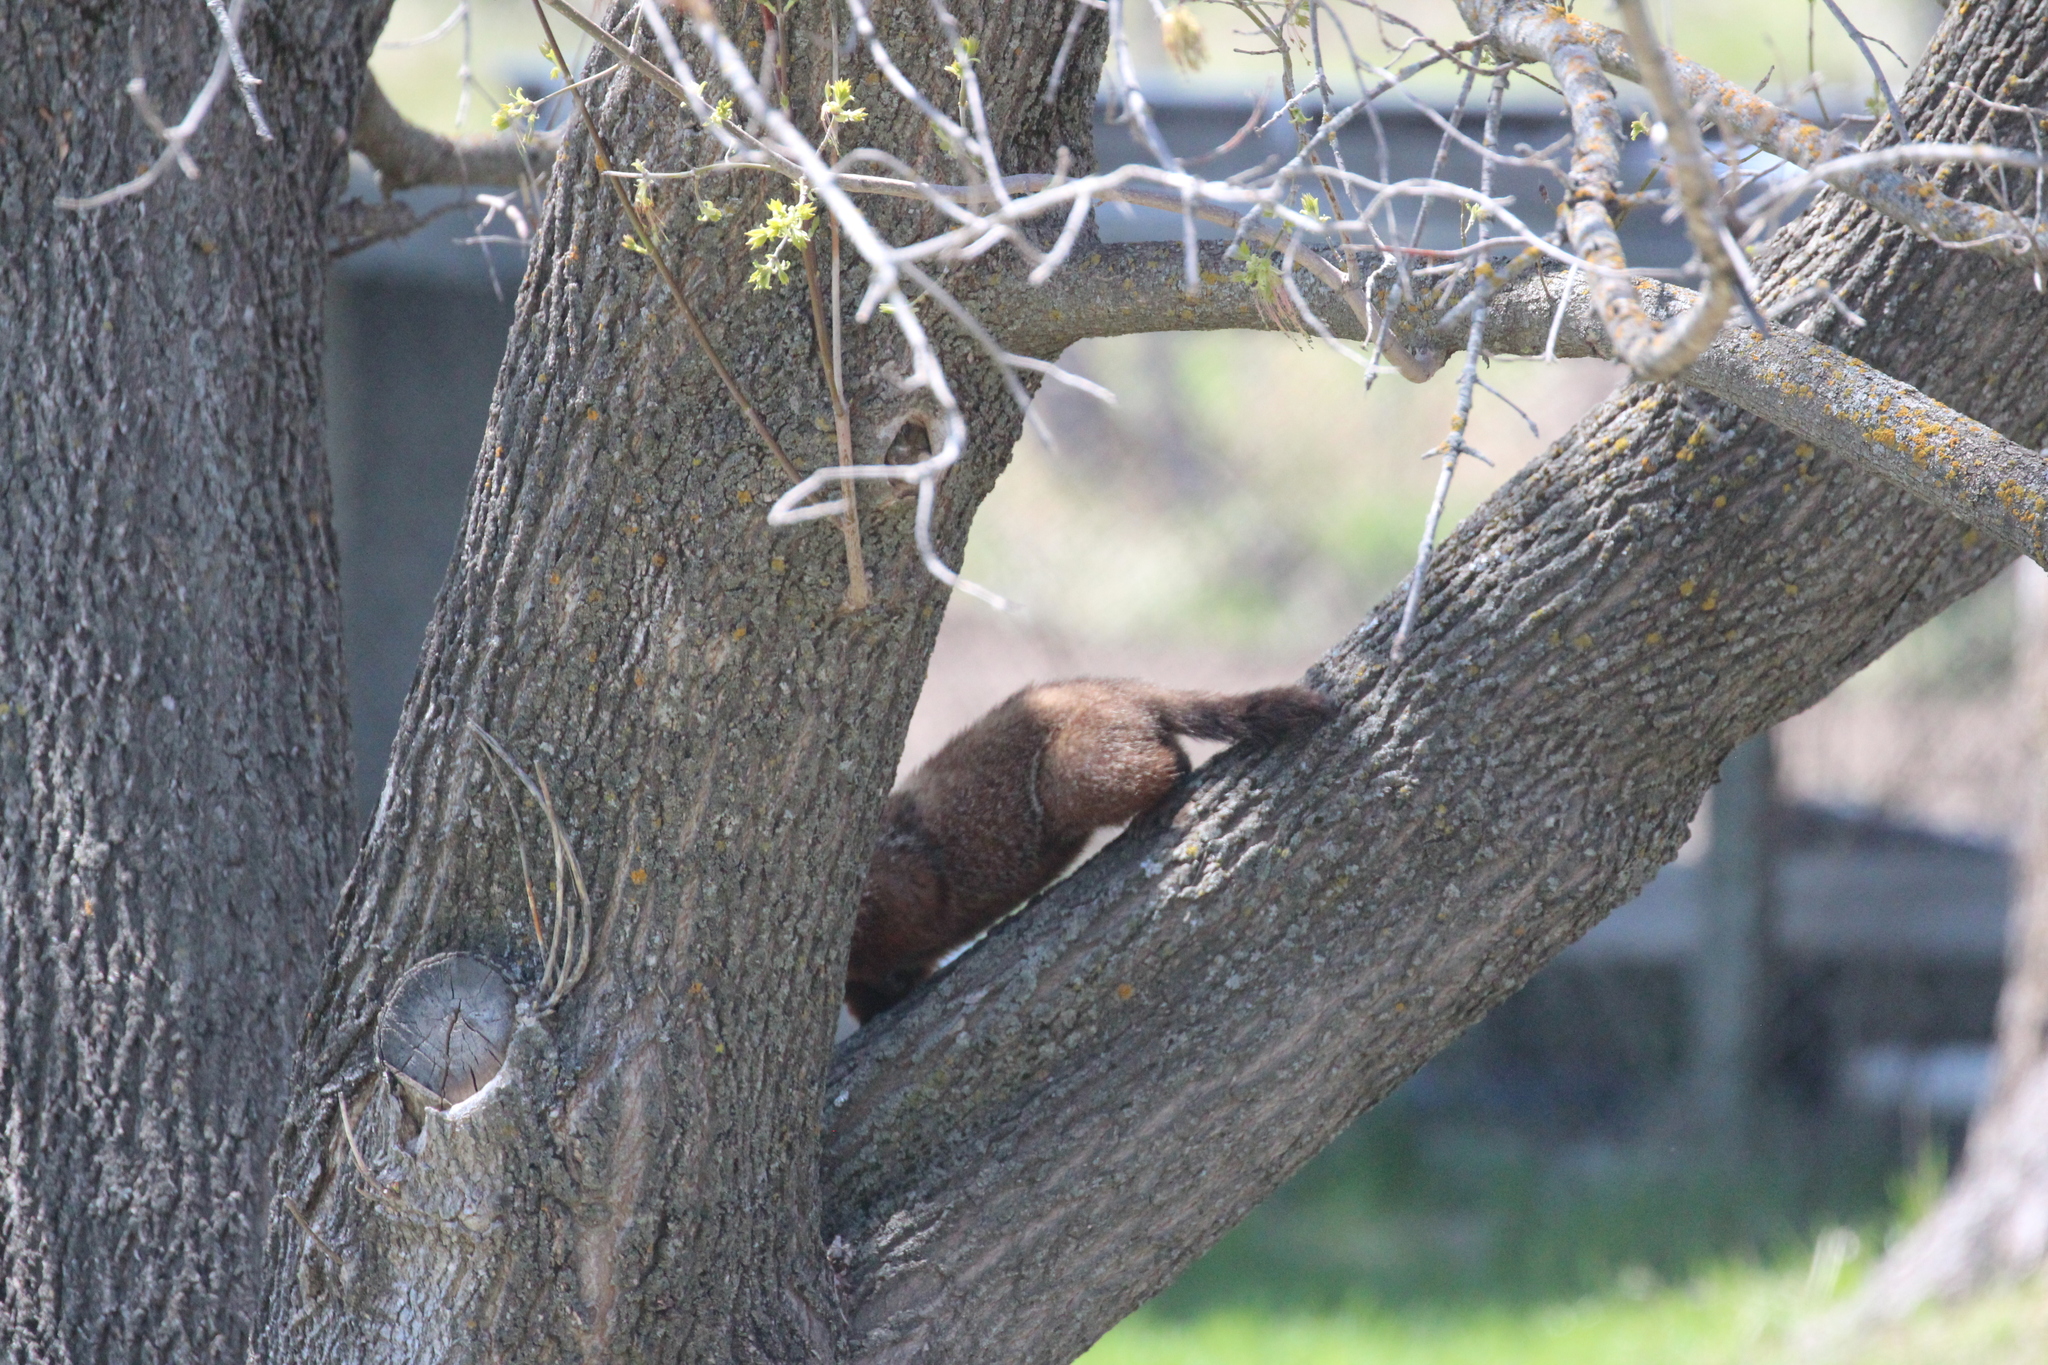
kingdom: Animalia
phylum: Chordata
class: Mammalia
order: Rodentia
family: Sciuridae
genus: Marmota
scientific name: Marmota monax
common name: Groundhog
